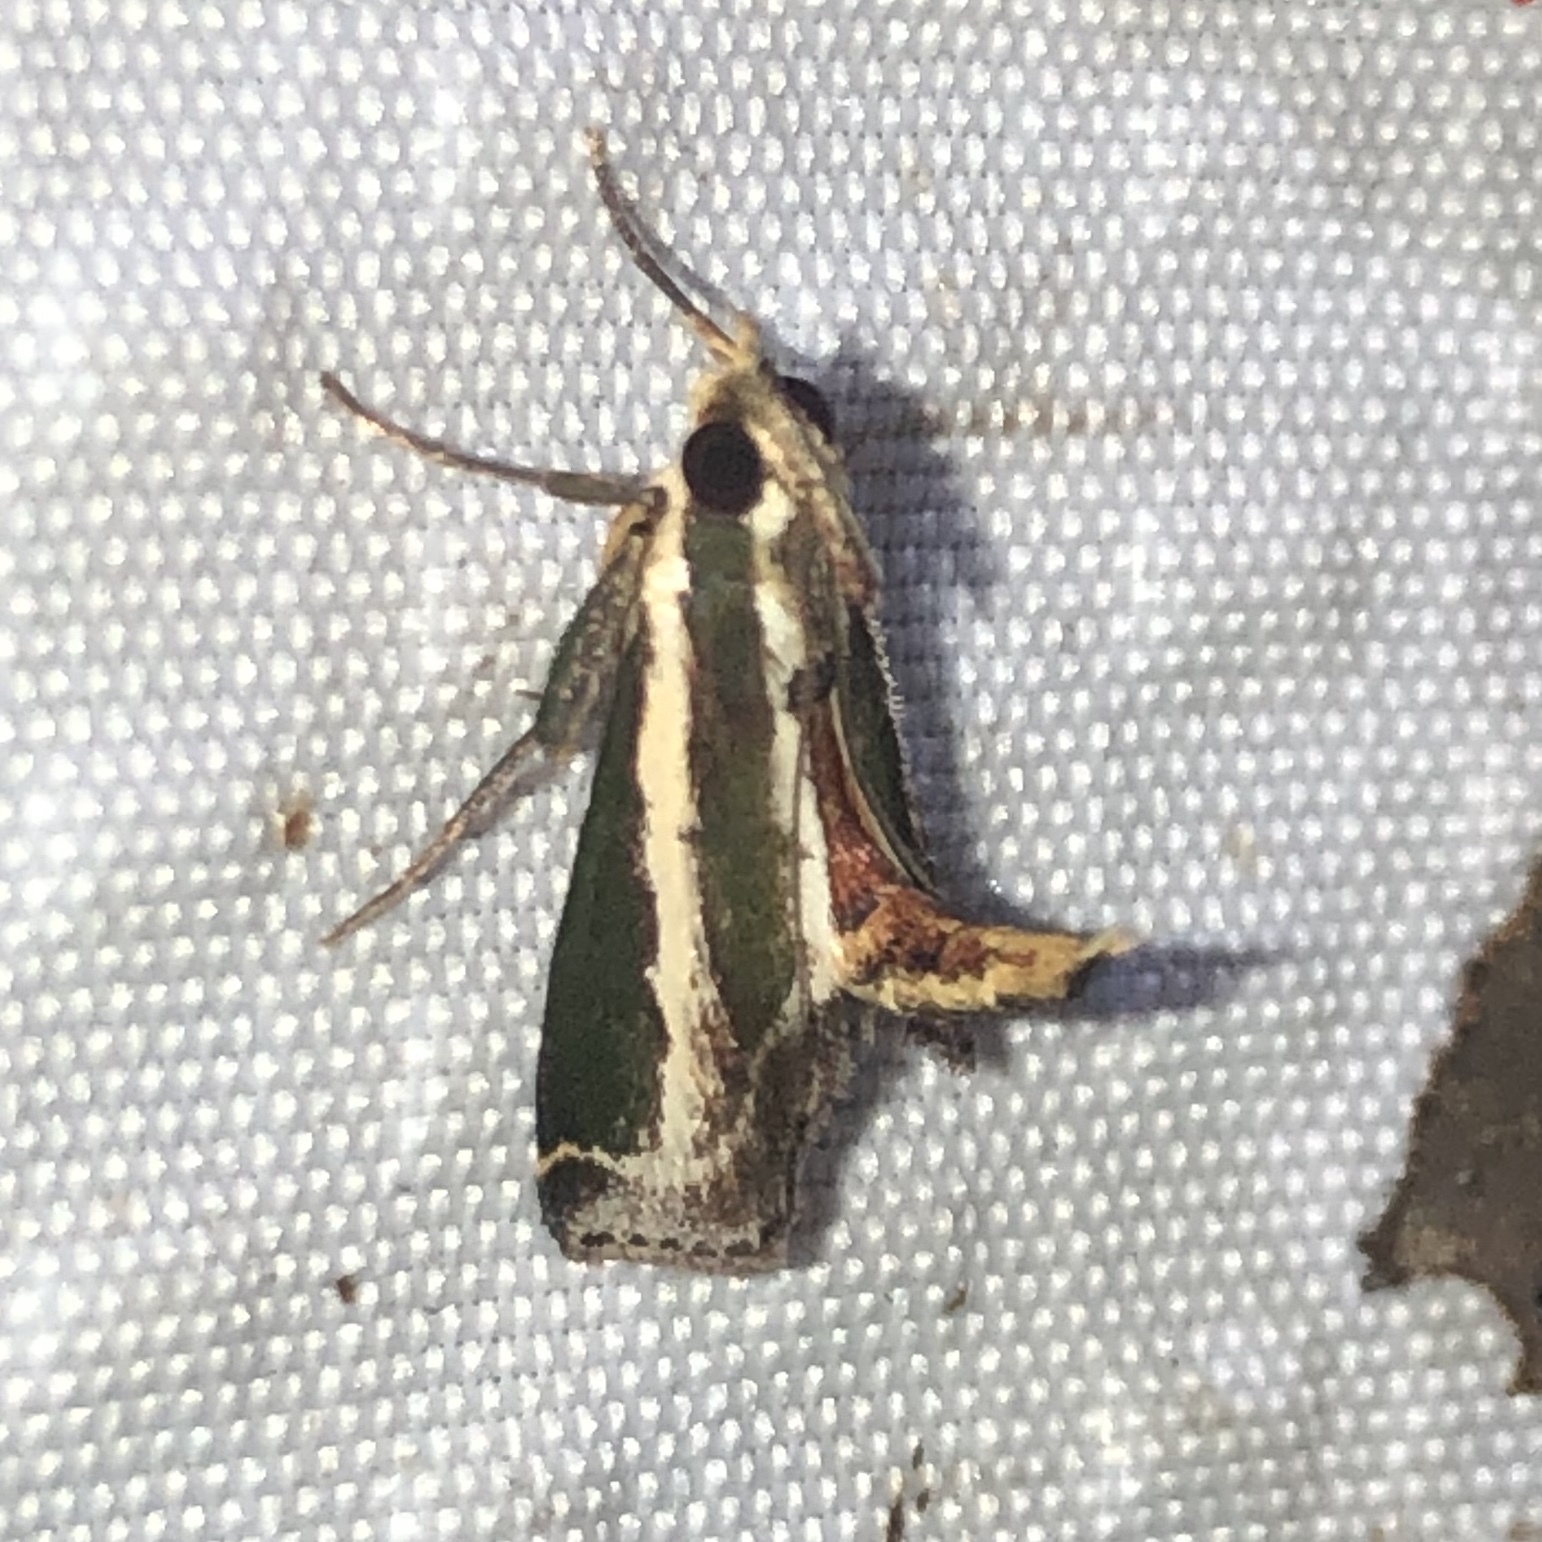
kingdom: Animalia
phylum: Arthropoda
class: Insecta
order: Lepidoptera
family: Pyralidae
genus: Anarnatula
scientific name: Anarnatula subflavida
